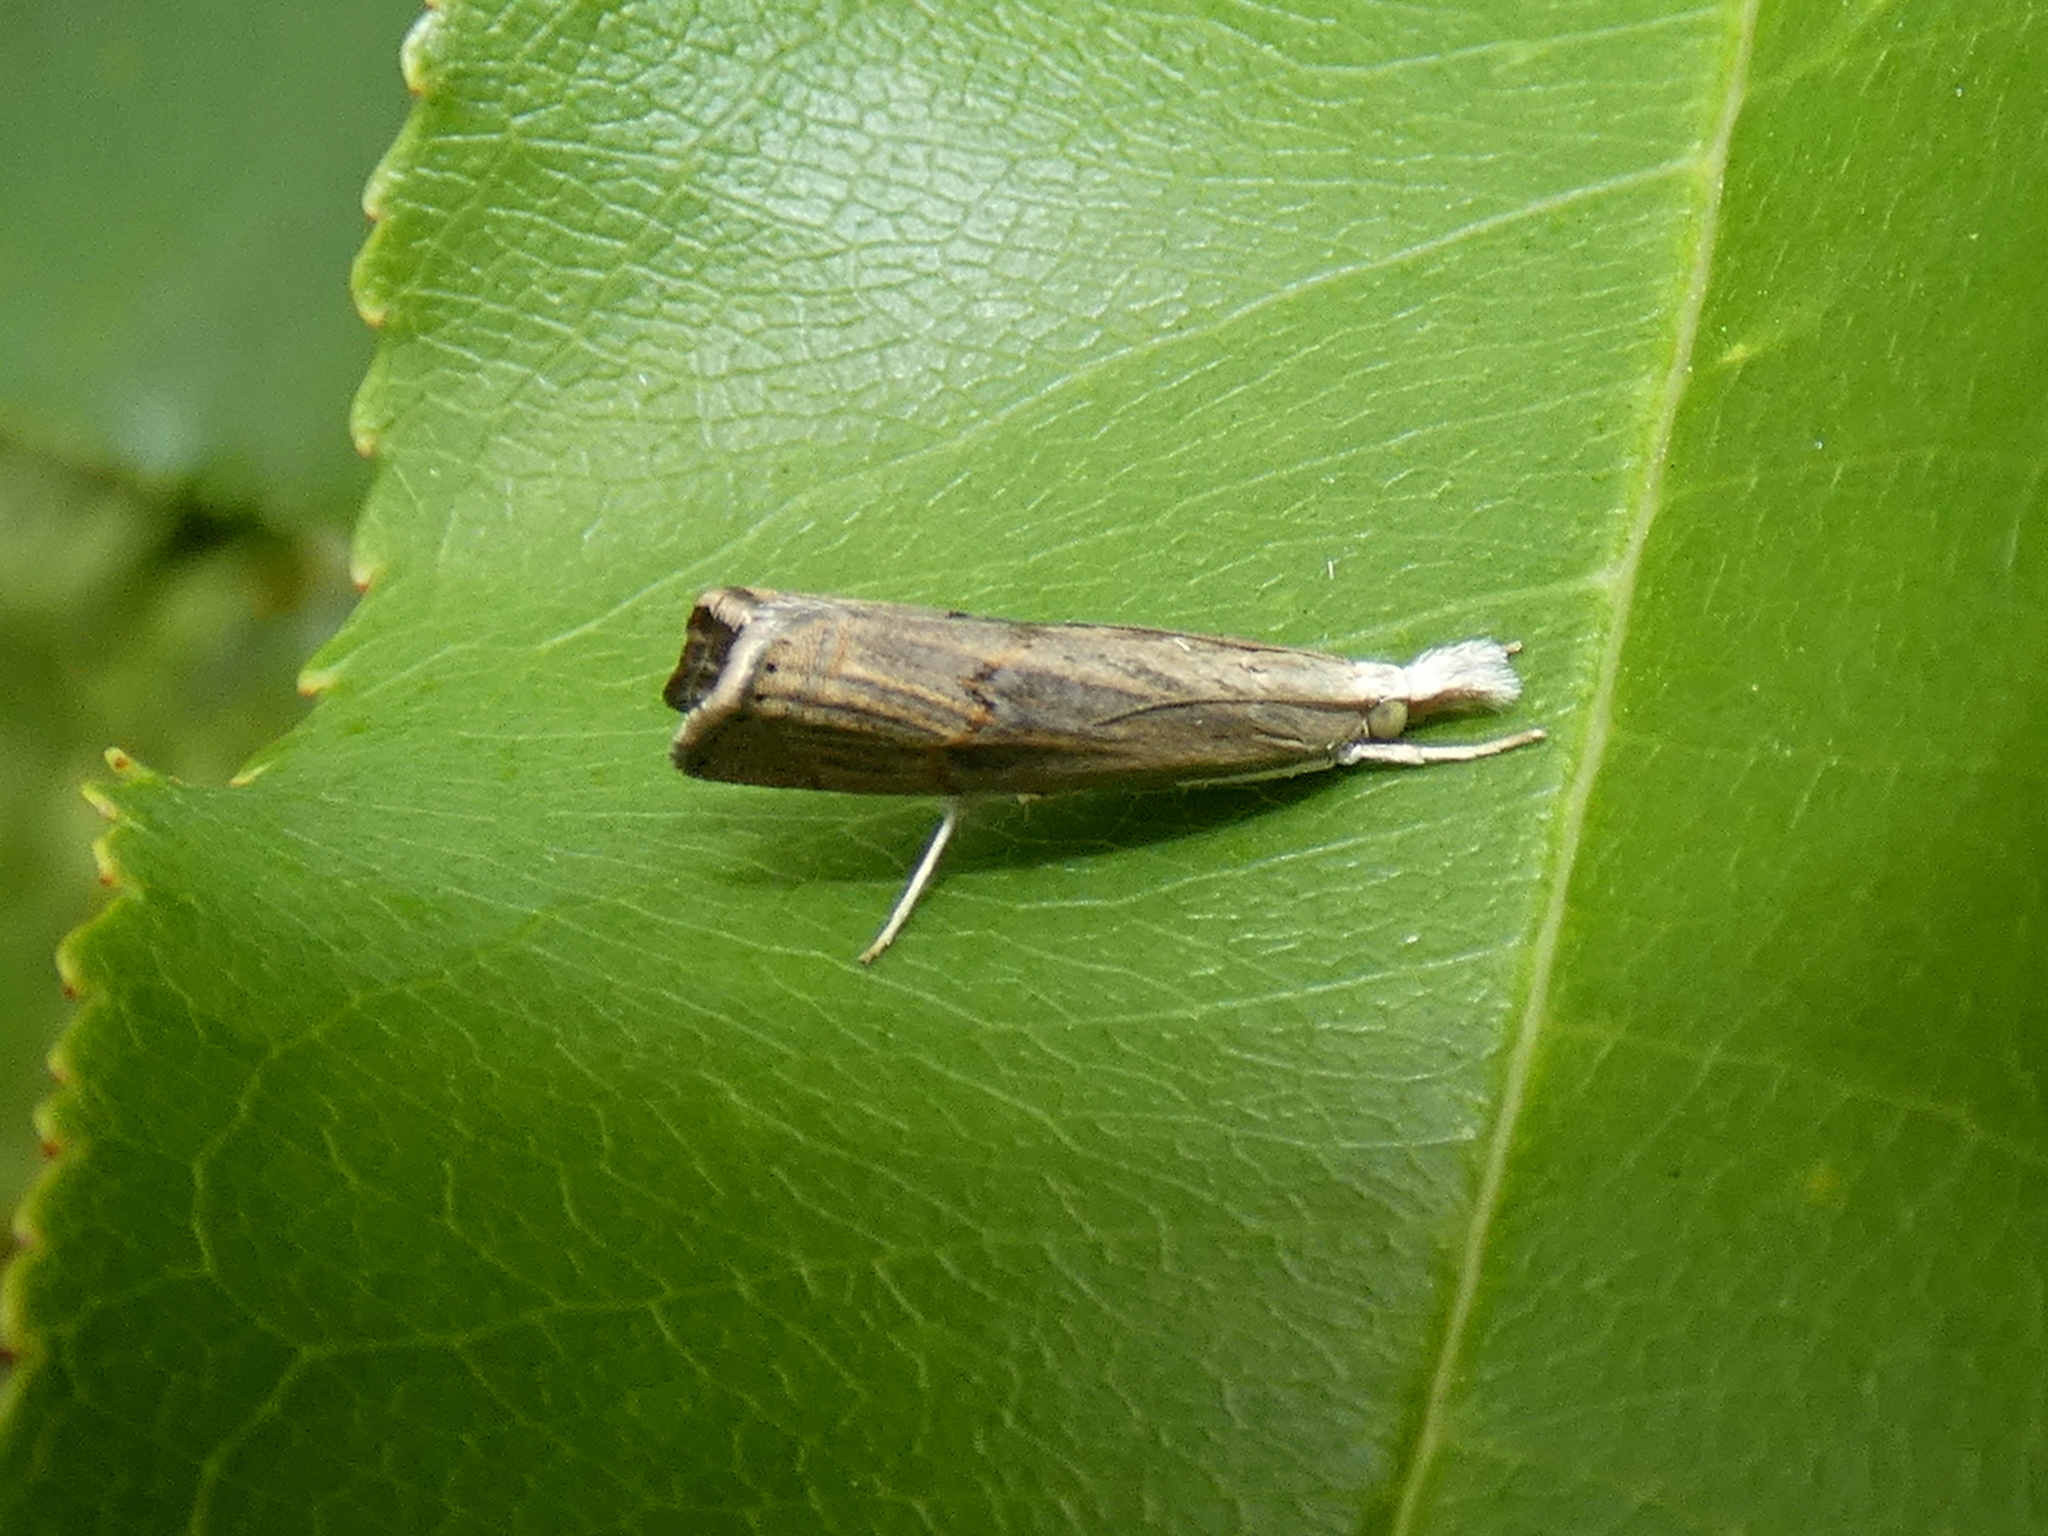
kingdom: Animalia
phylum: Arthropoda
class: Insecta
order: Lepidoptera
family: Crambidae
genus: Parapediasia
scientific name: Parapediasia teterellus
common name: Bluegrass webworm moth
